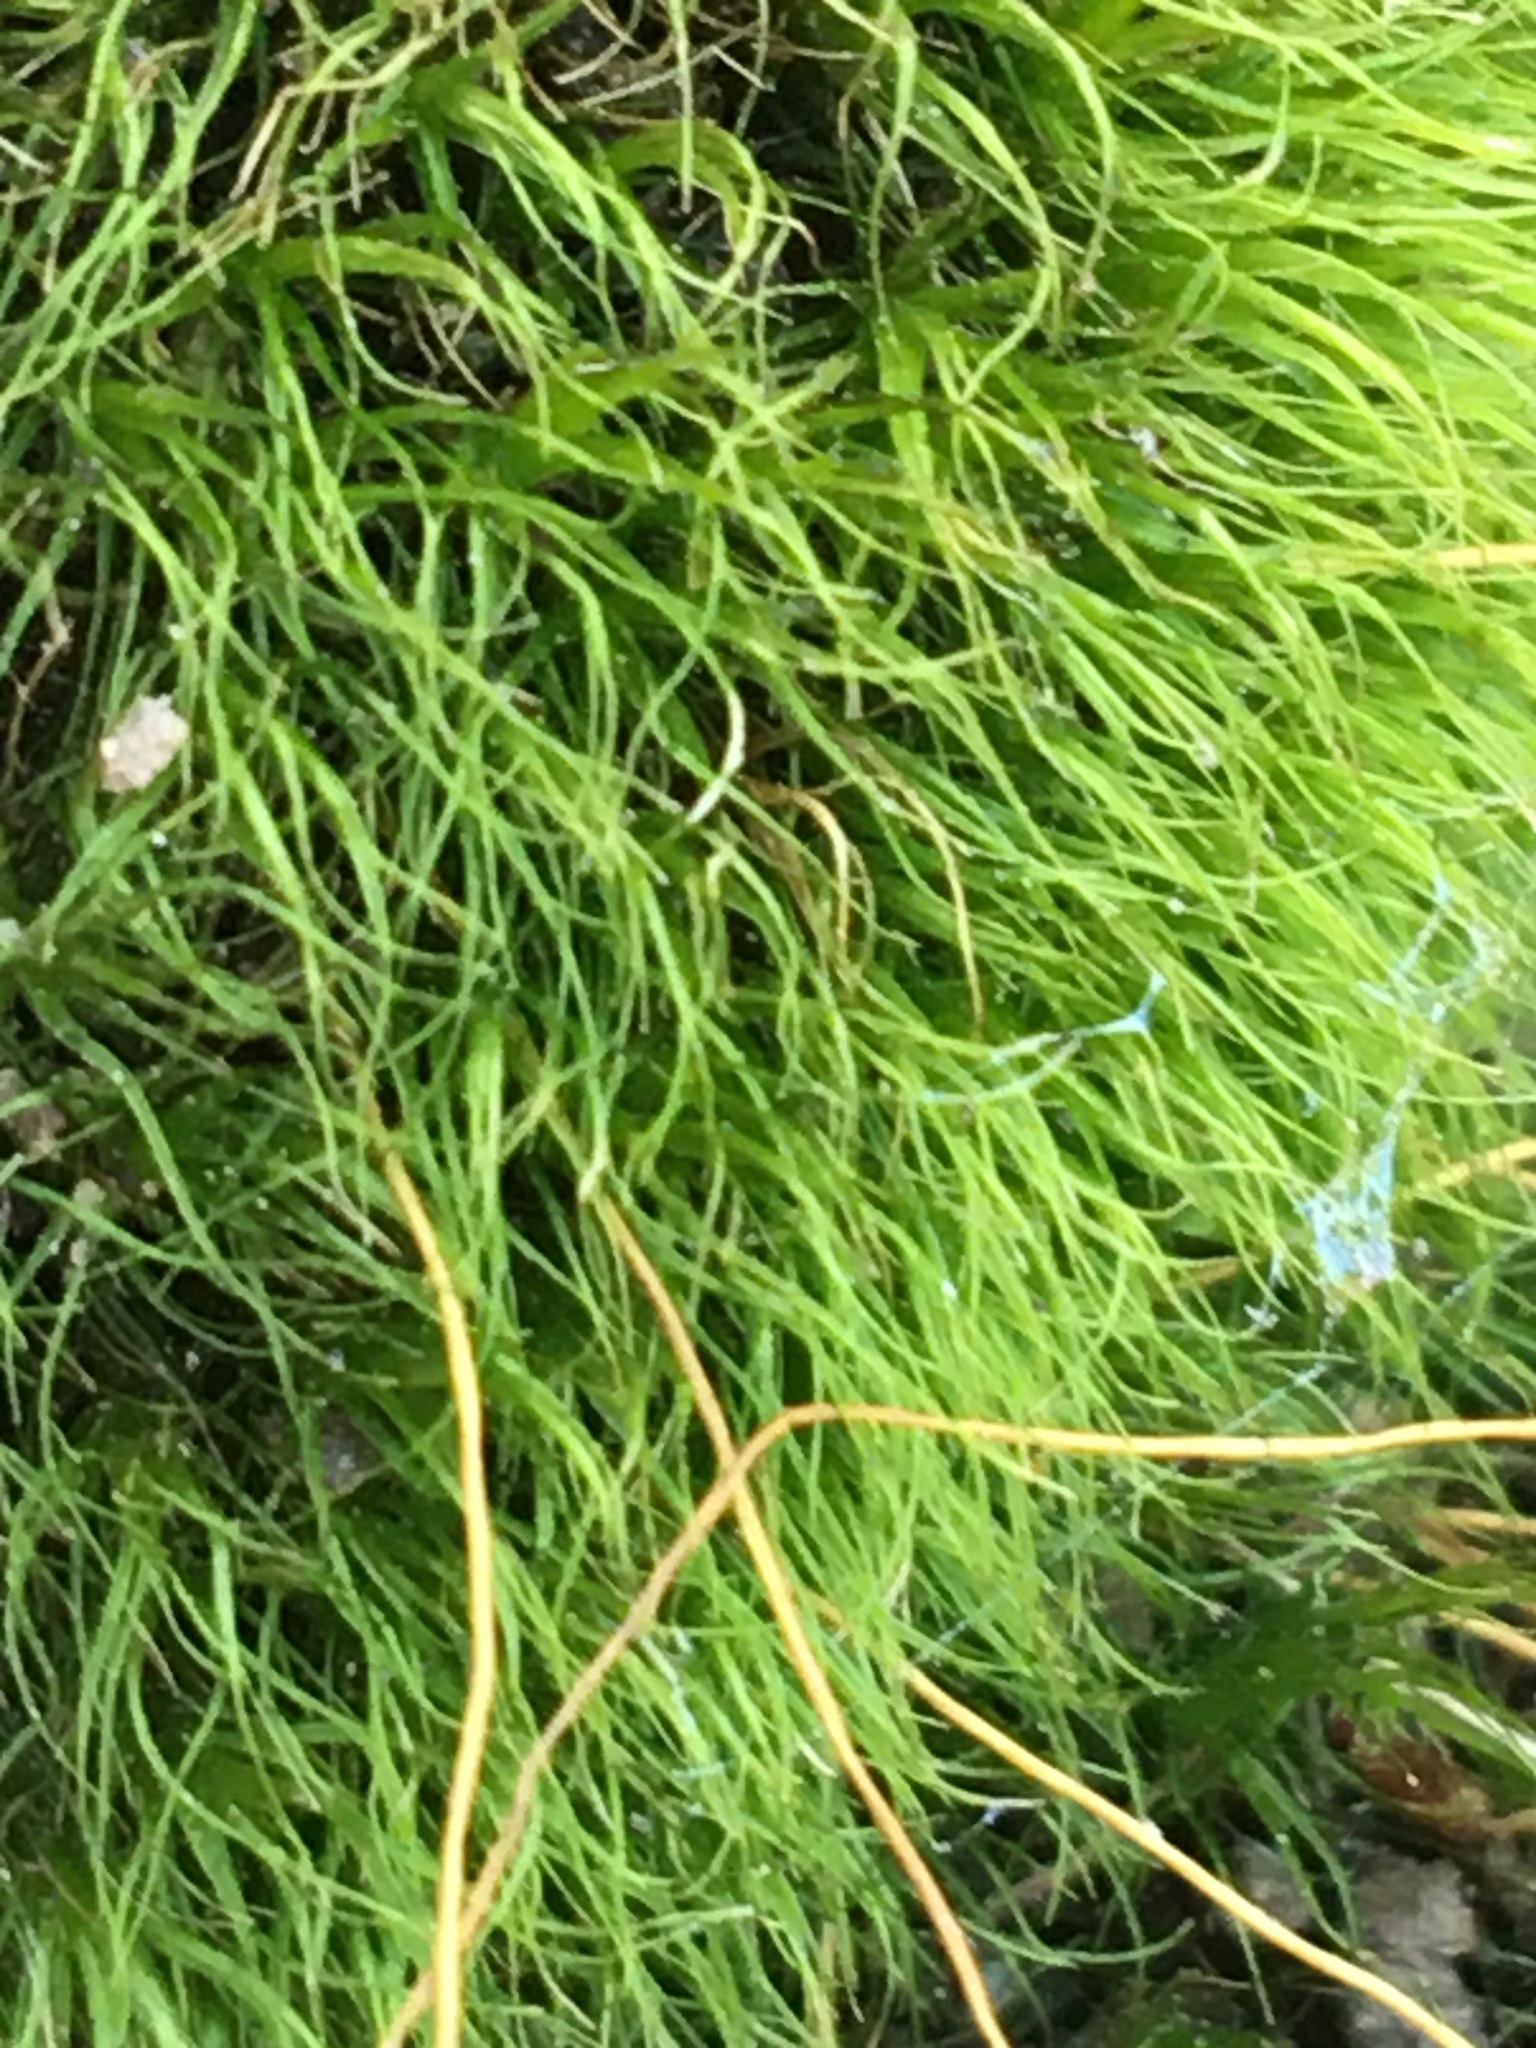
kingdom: Plantae
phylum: Bryophyta
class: Bryopsida
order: Dicranales
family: Dicranaceae
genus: Dicranum
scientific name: Dicranum scoparium
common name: Broom fork-moss
